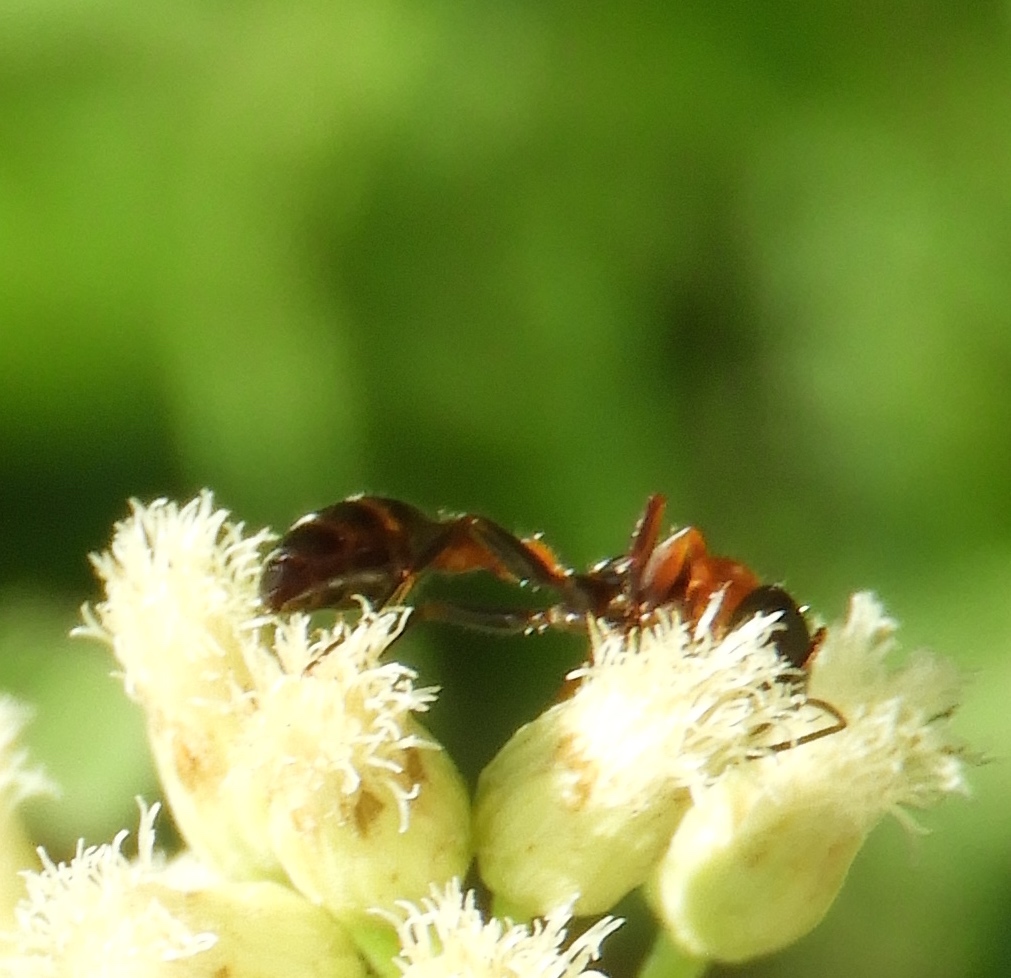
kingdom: Animalia
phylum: Arthropoda
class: Insecta
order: Hymenoptera
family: Formicidae
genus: Pseudomyrmex
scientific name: Pseudomyrmex gracilis
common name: Graceful twig ant
